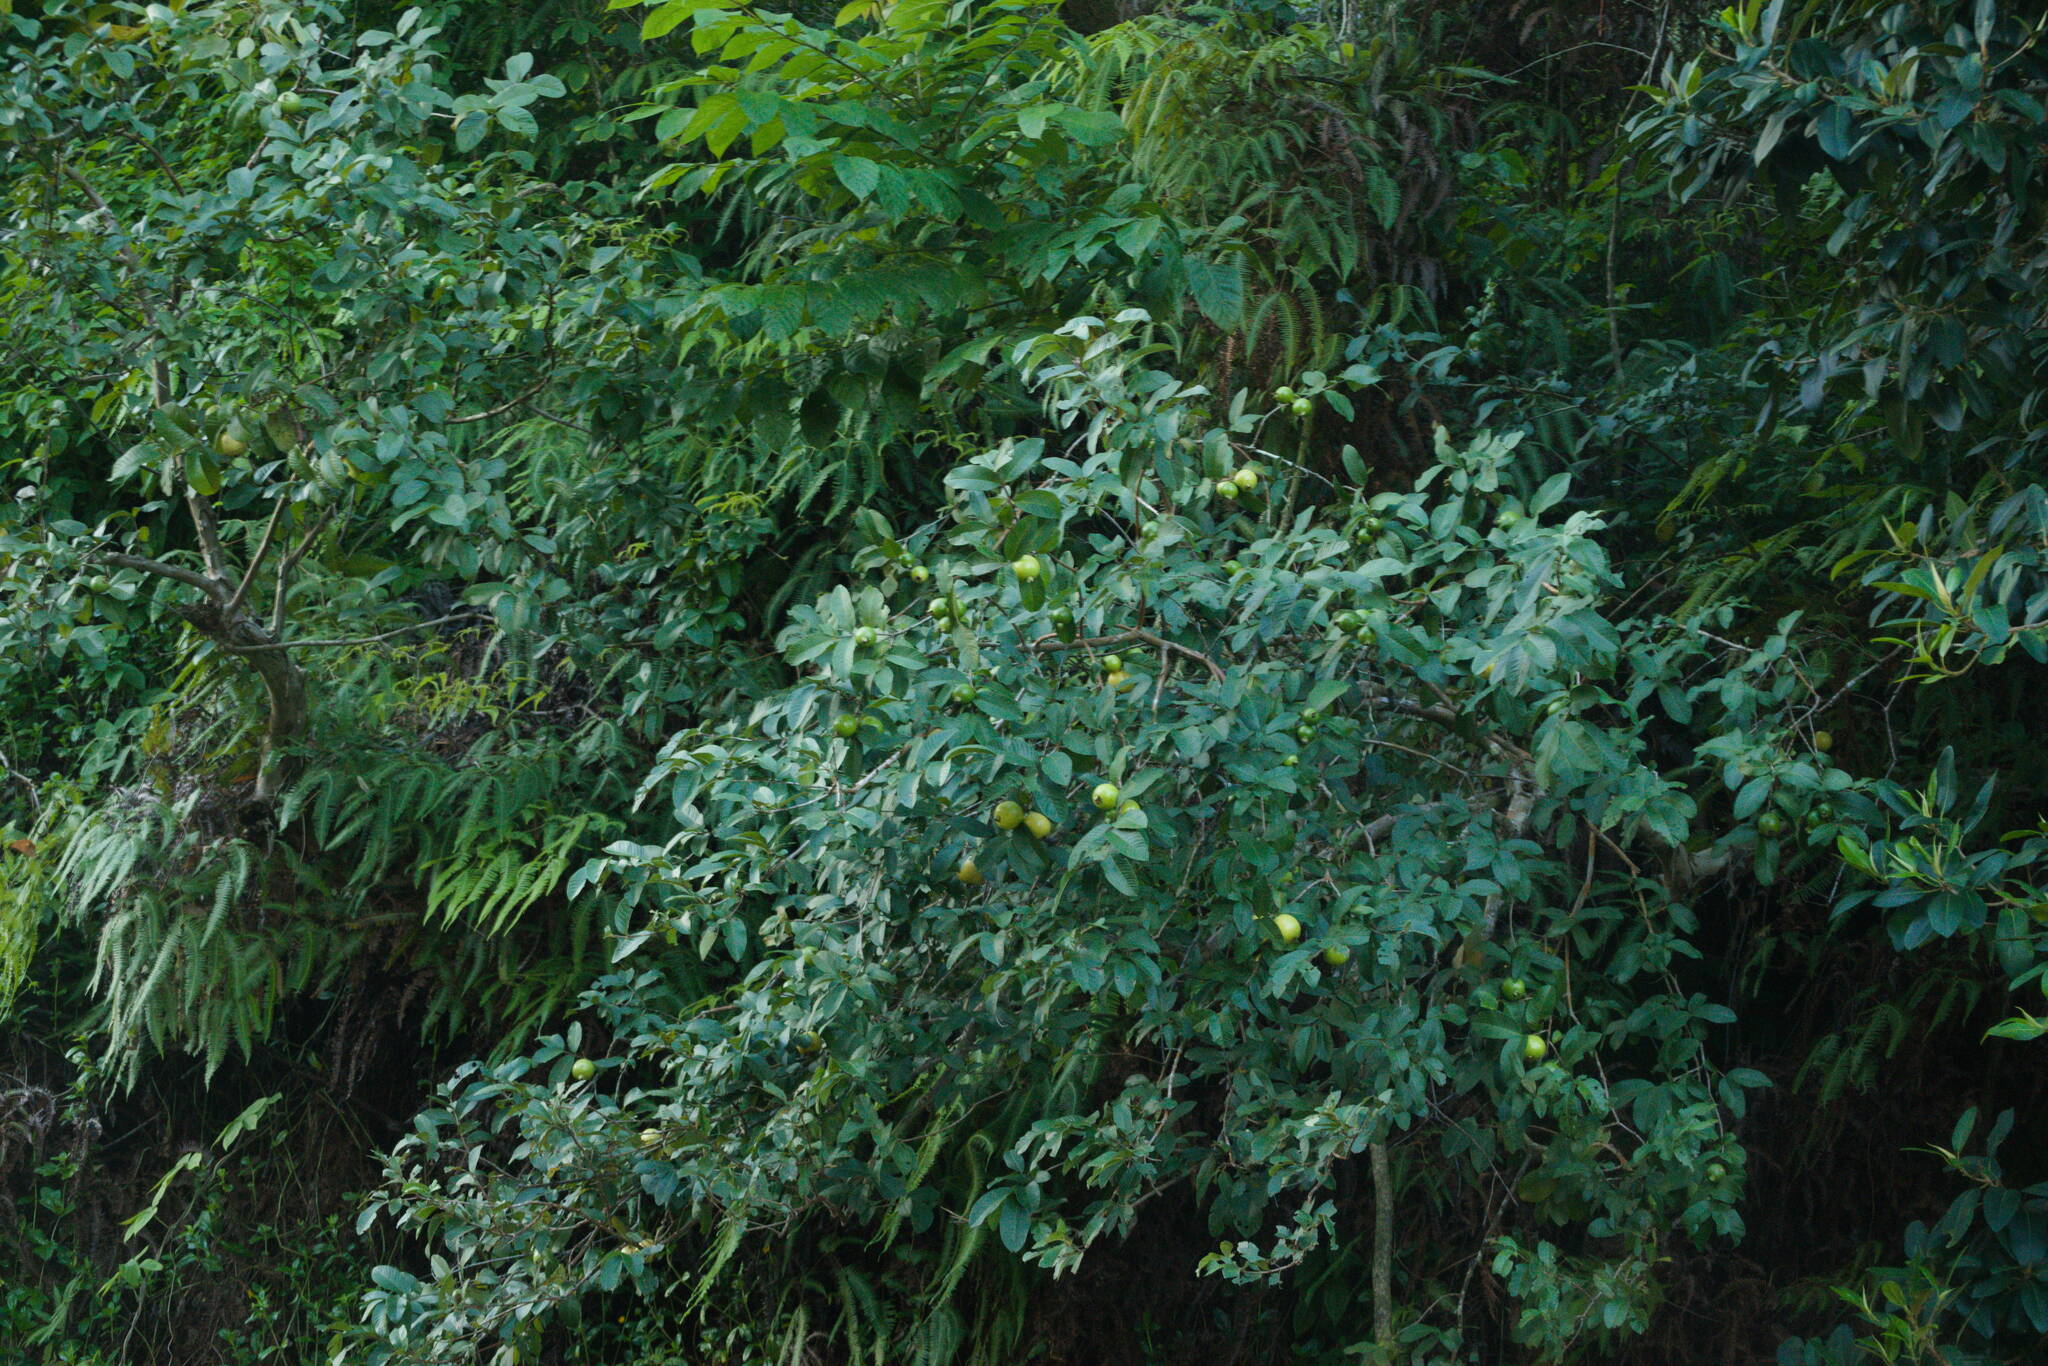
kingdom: Plantae
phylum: Tracheophyta
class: Magnoliopsida
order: Myrtales
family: Myrtaceae
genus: Psidium
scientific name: Psidium guajava
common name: Guava
